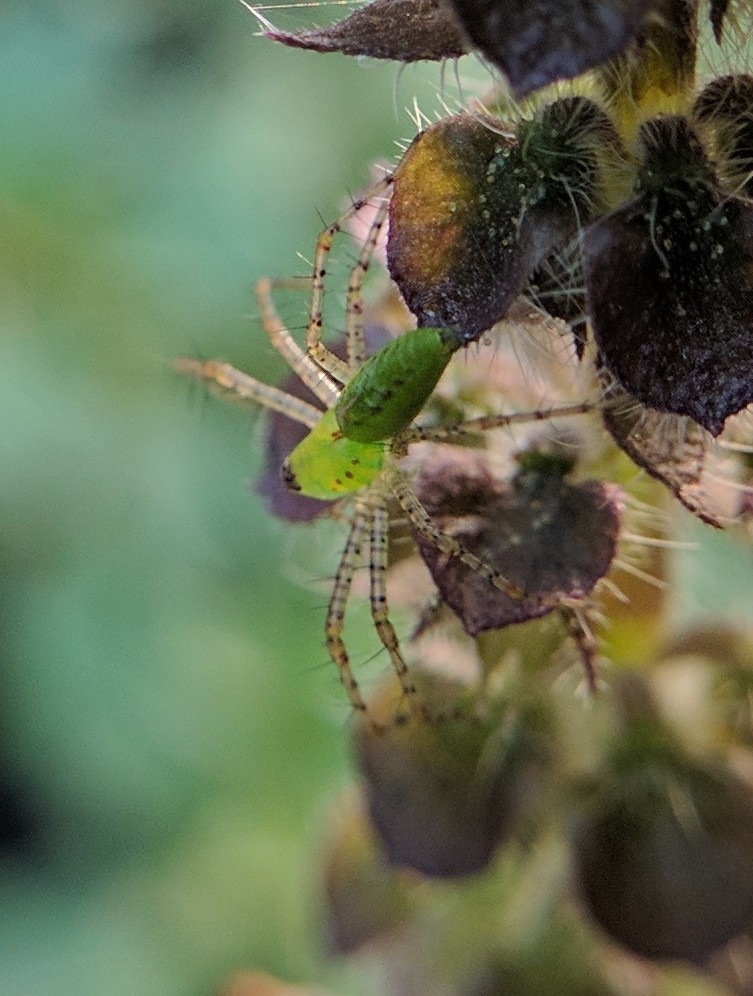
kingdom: Animalia
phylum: Arthropoda
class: Arachnida
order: Araneae
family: Oxyopidae
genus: Peucetia
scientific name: Peucetia viridans
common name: Lynx spiders
